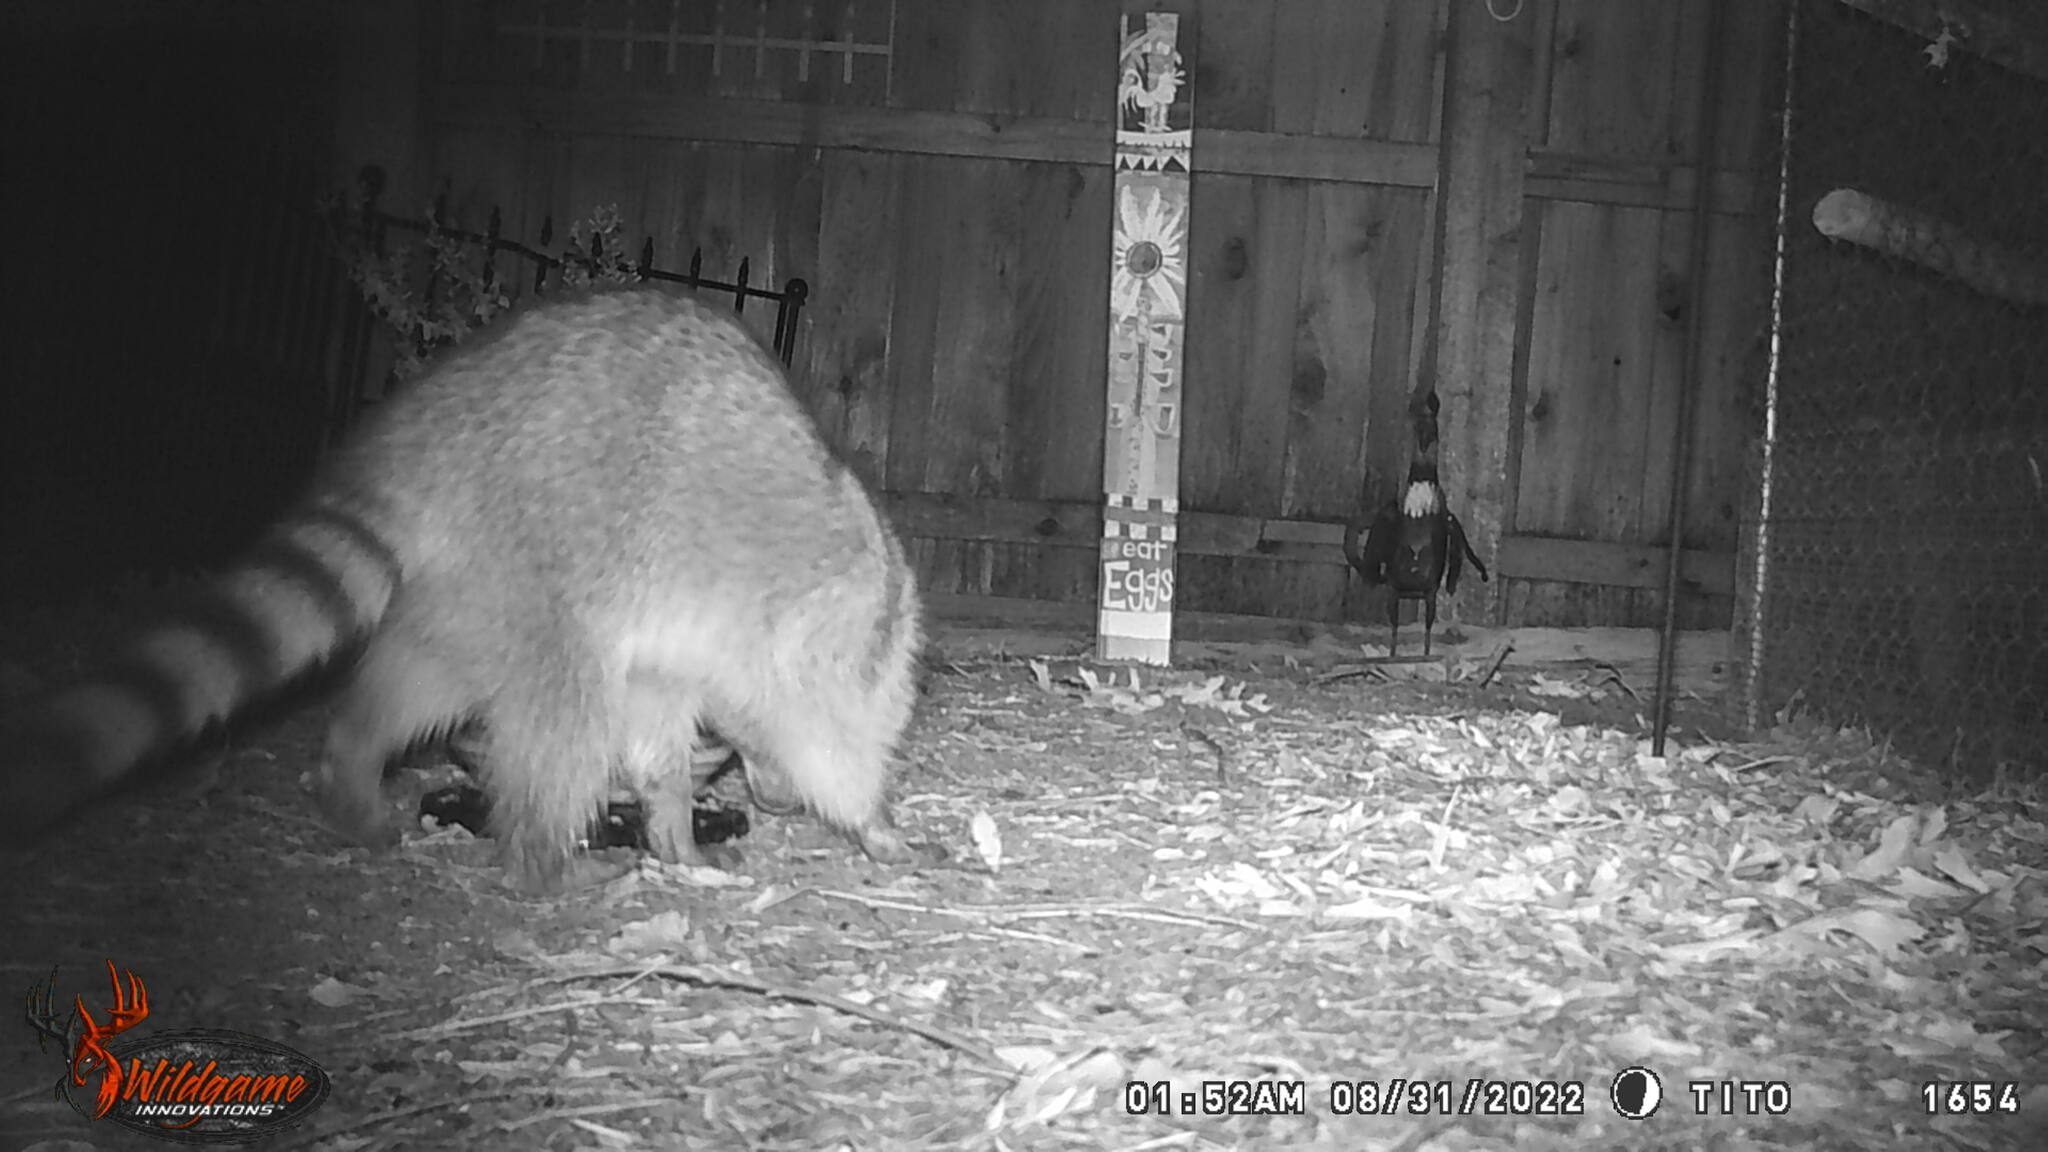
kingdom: Animalia
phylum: Chordata
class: Mammalia
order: Carnivora
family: Procyonidae
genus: Procyon
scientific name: Procyon lotor
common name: Raccoon
